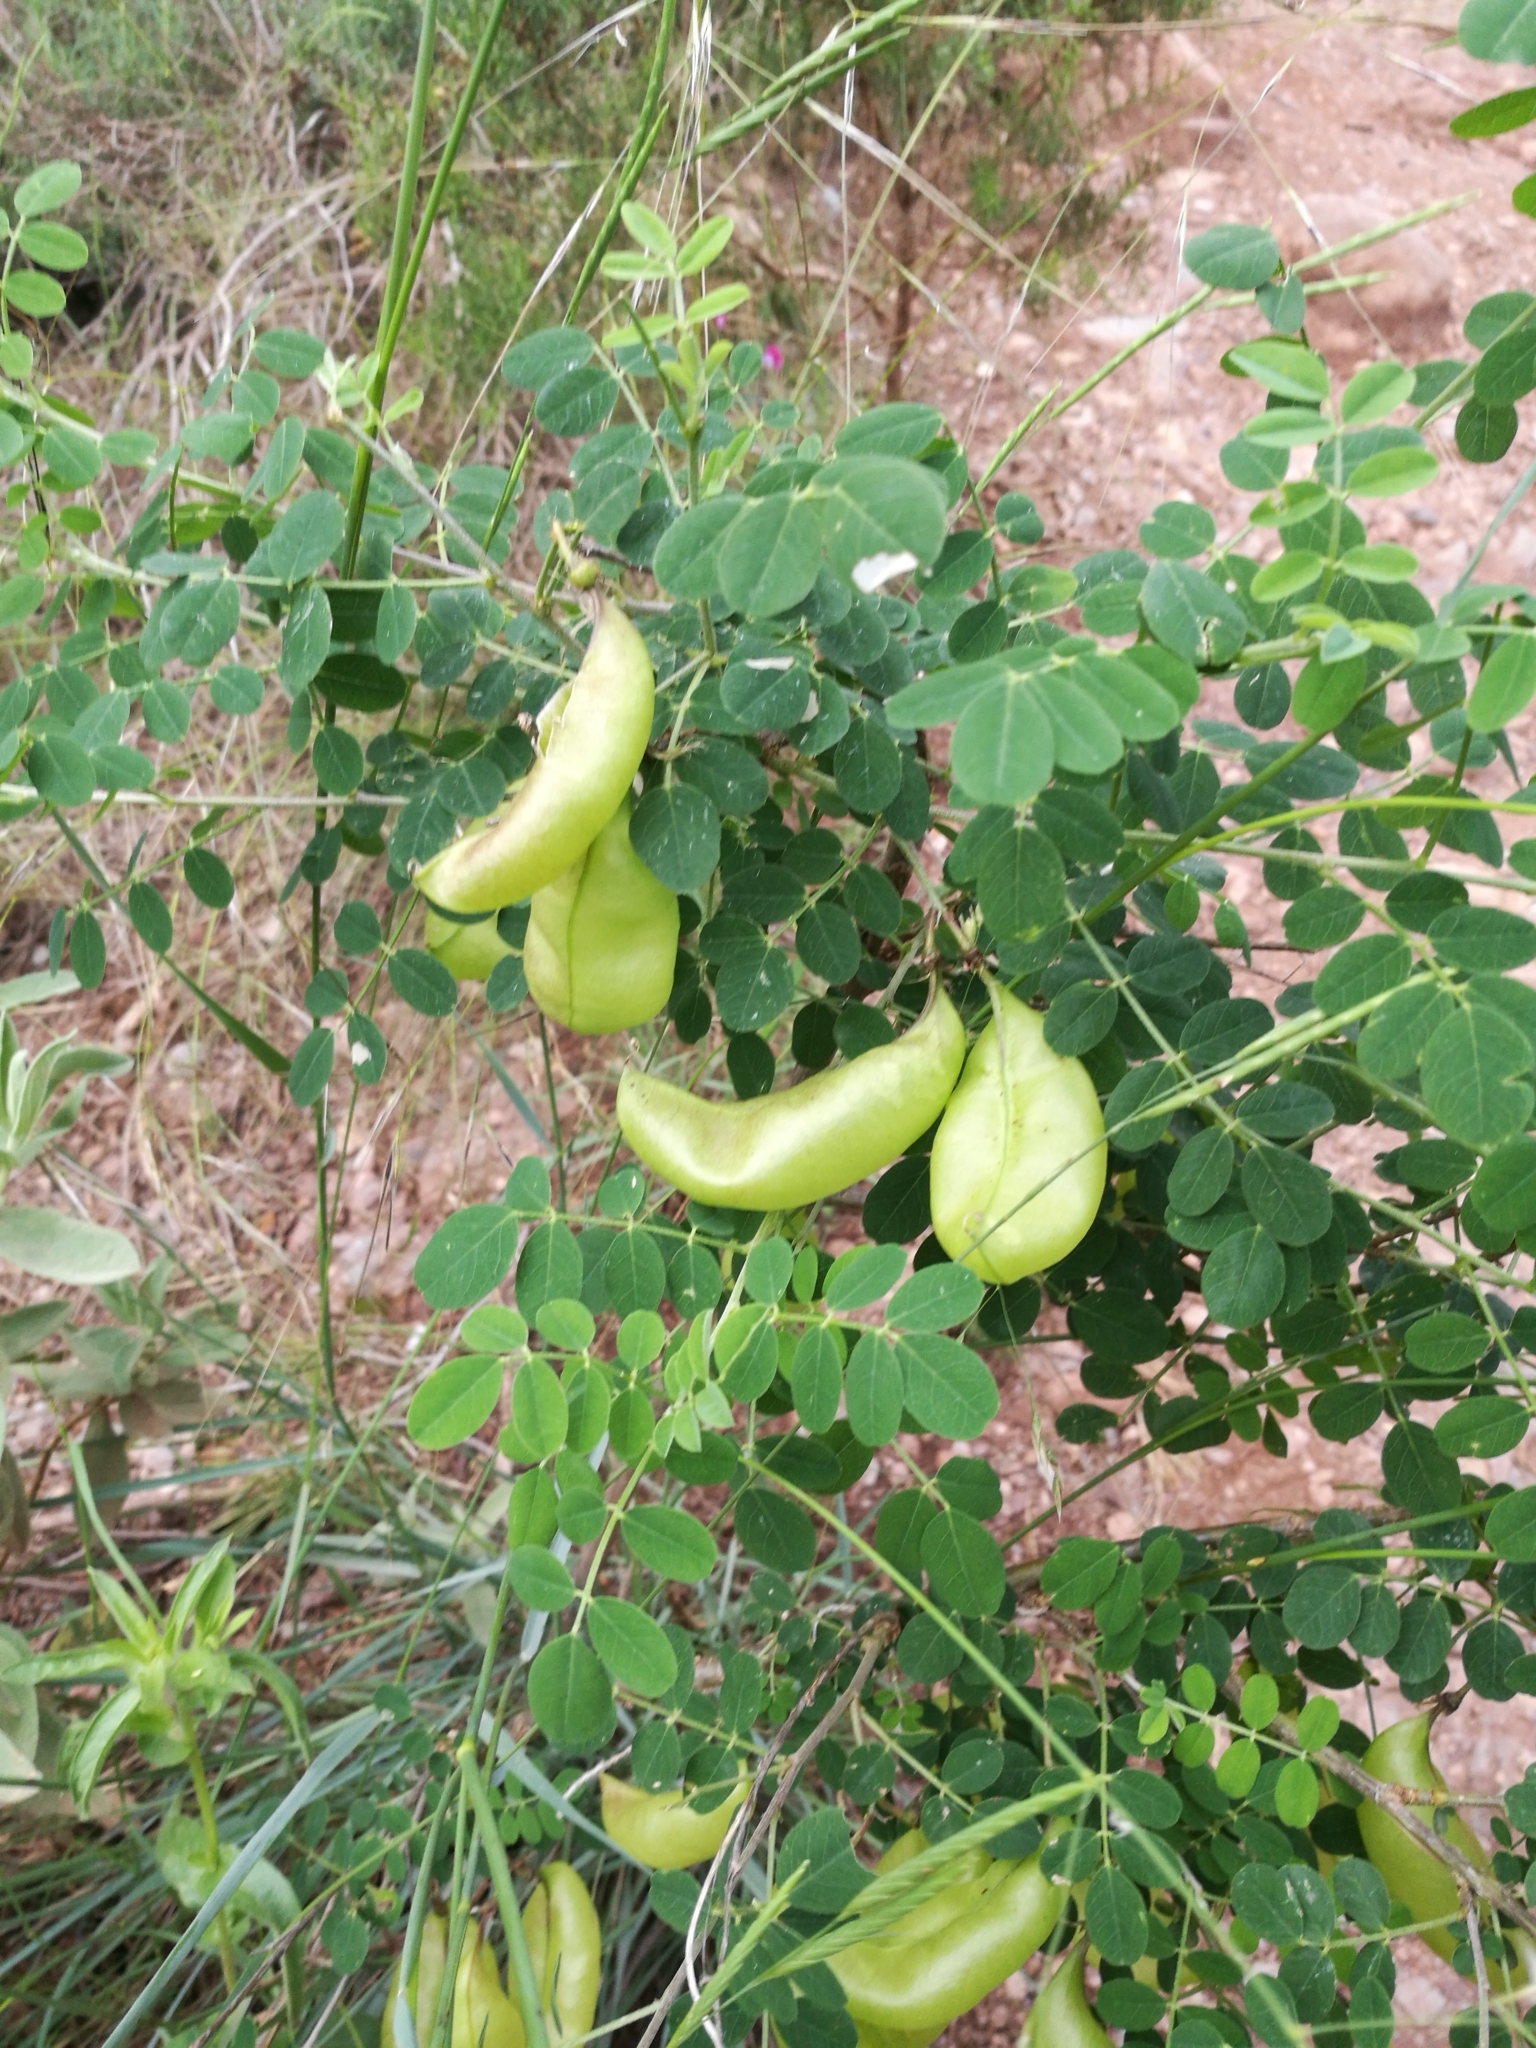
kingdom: Plantae
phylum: Tracheophyta
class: Magnoliopsida
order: Fabales
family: Fabaceae
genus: Colutea
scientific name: Colutea arborescens
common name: Bladder-senna
